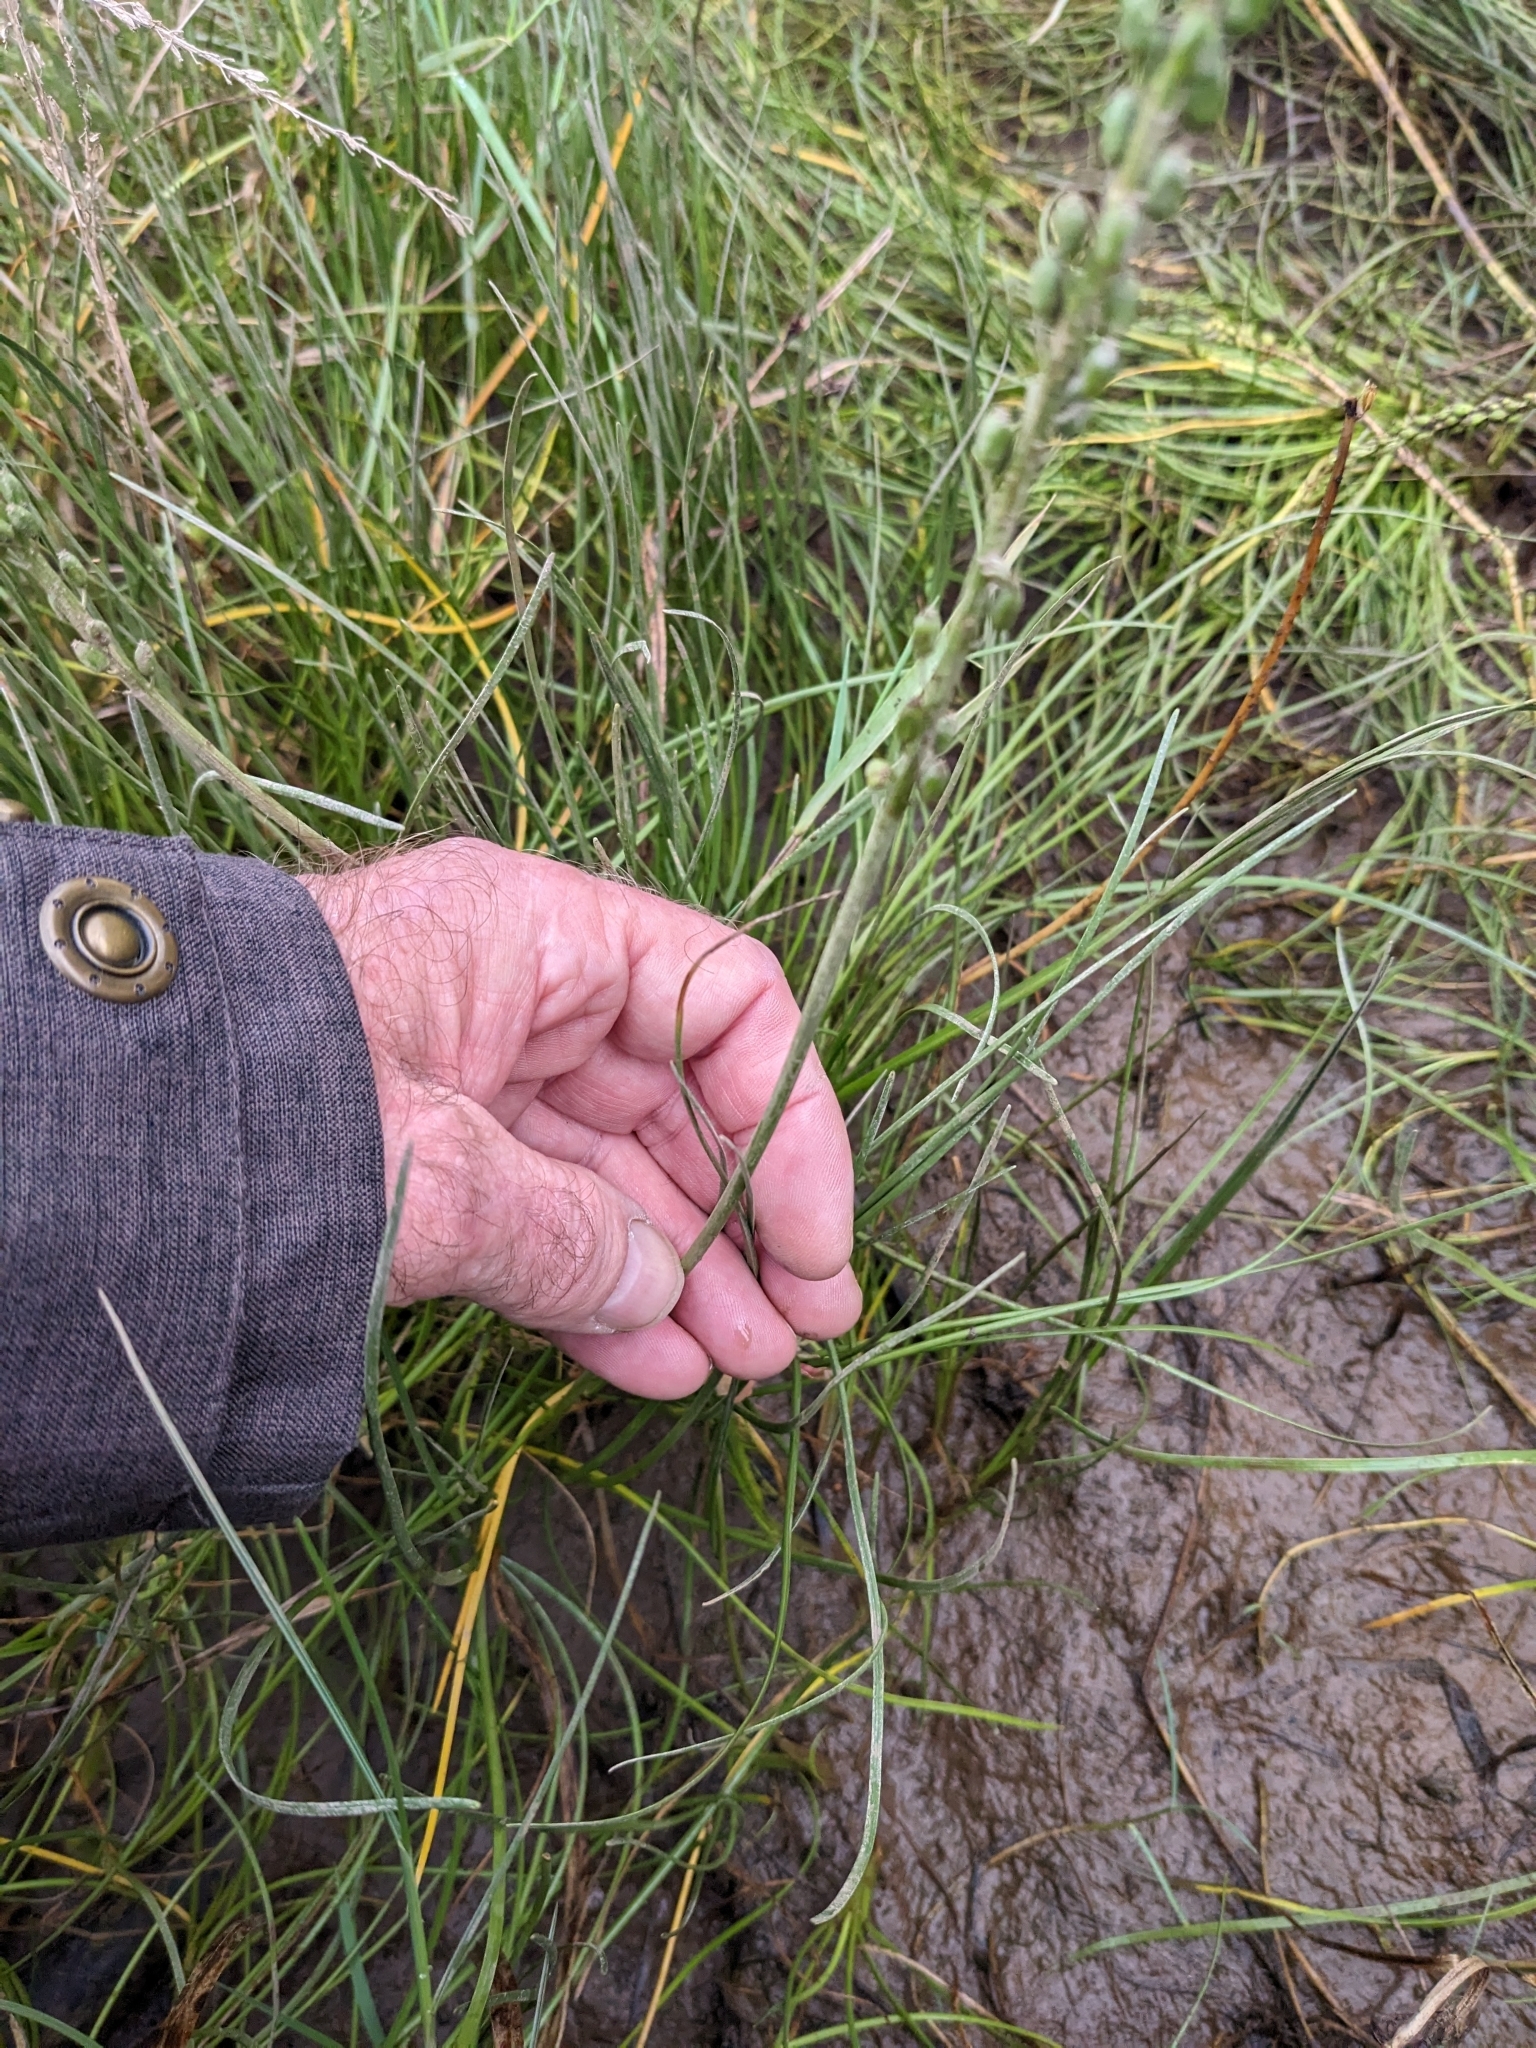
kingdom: Plantae
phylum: Tracheophyta
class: Liliopsida
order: Alismatales
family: Juncaginaceae
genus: Triglochin
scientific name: Triglochin maritima
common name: Sea arrowgrass
